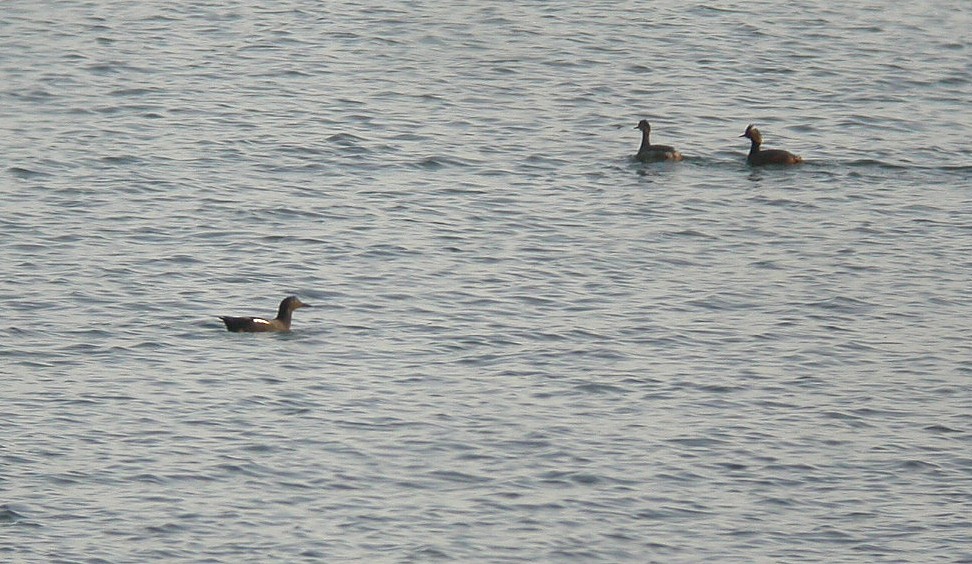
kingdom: Animalia
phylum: Chordata
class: Aves
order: Podicipediformes
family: Podicipedidae
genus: Podiceps
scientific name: Podiceps nigricollis
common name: Black-necked grebe
